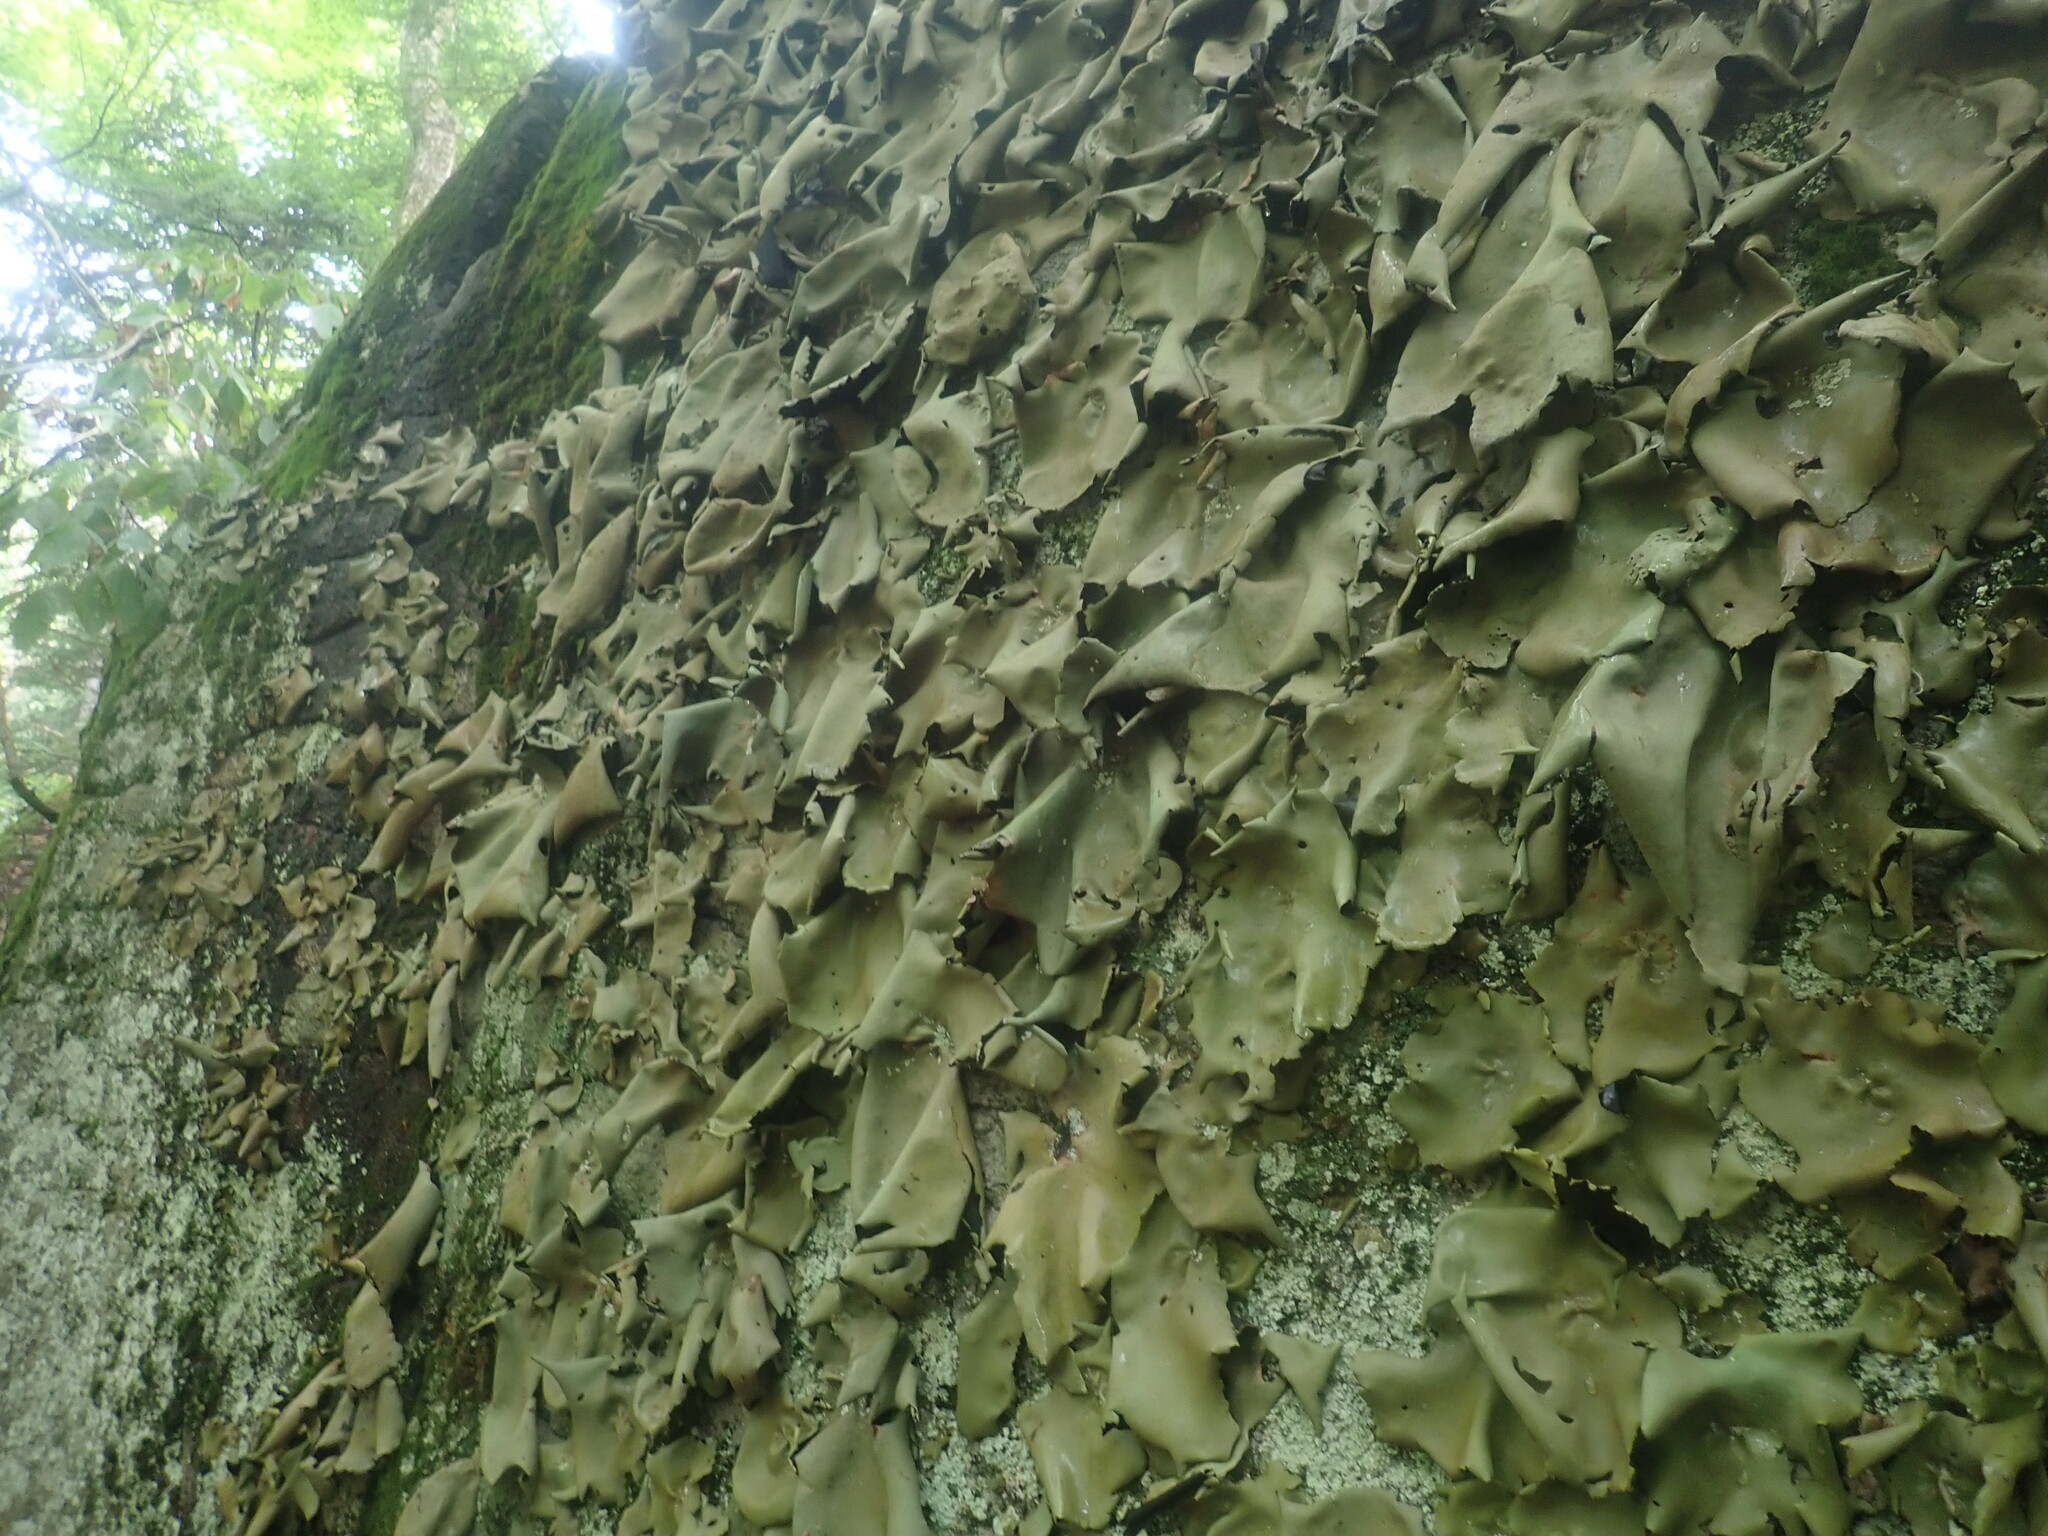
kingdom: Fungi
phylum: Ascomycota
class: Lecanoromycetes
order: Umbilicariales
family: Umbilicariaceae
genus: Umbilicaria
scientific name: Umbilicaria mammulata
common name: Smooth rock tripe
